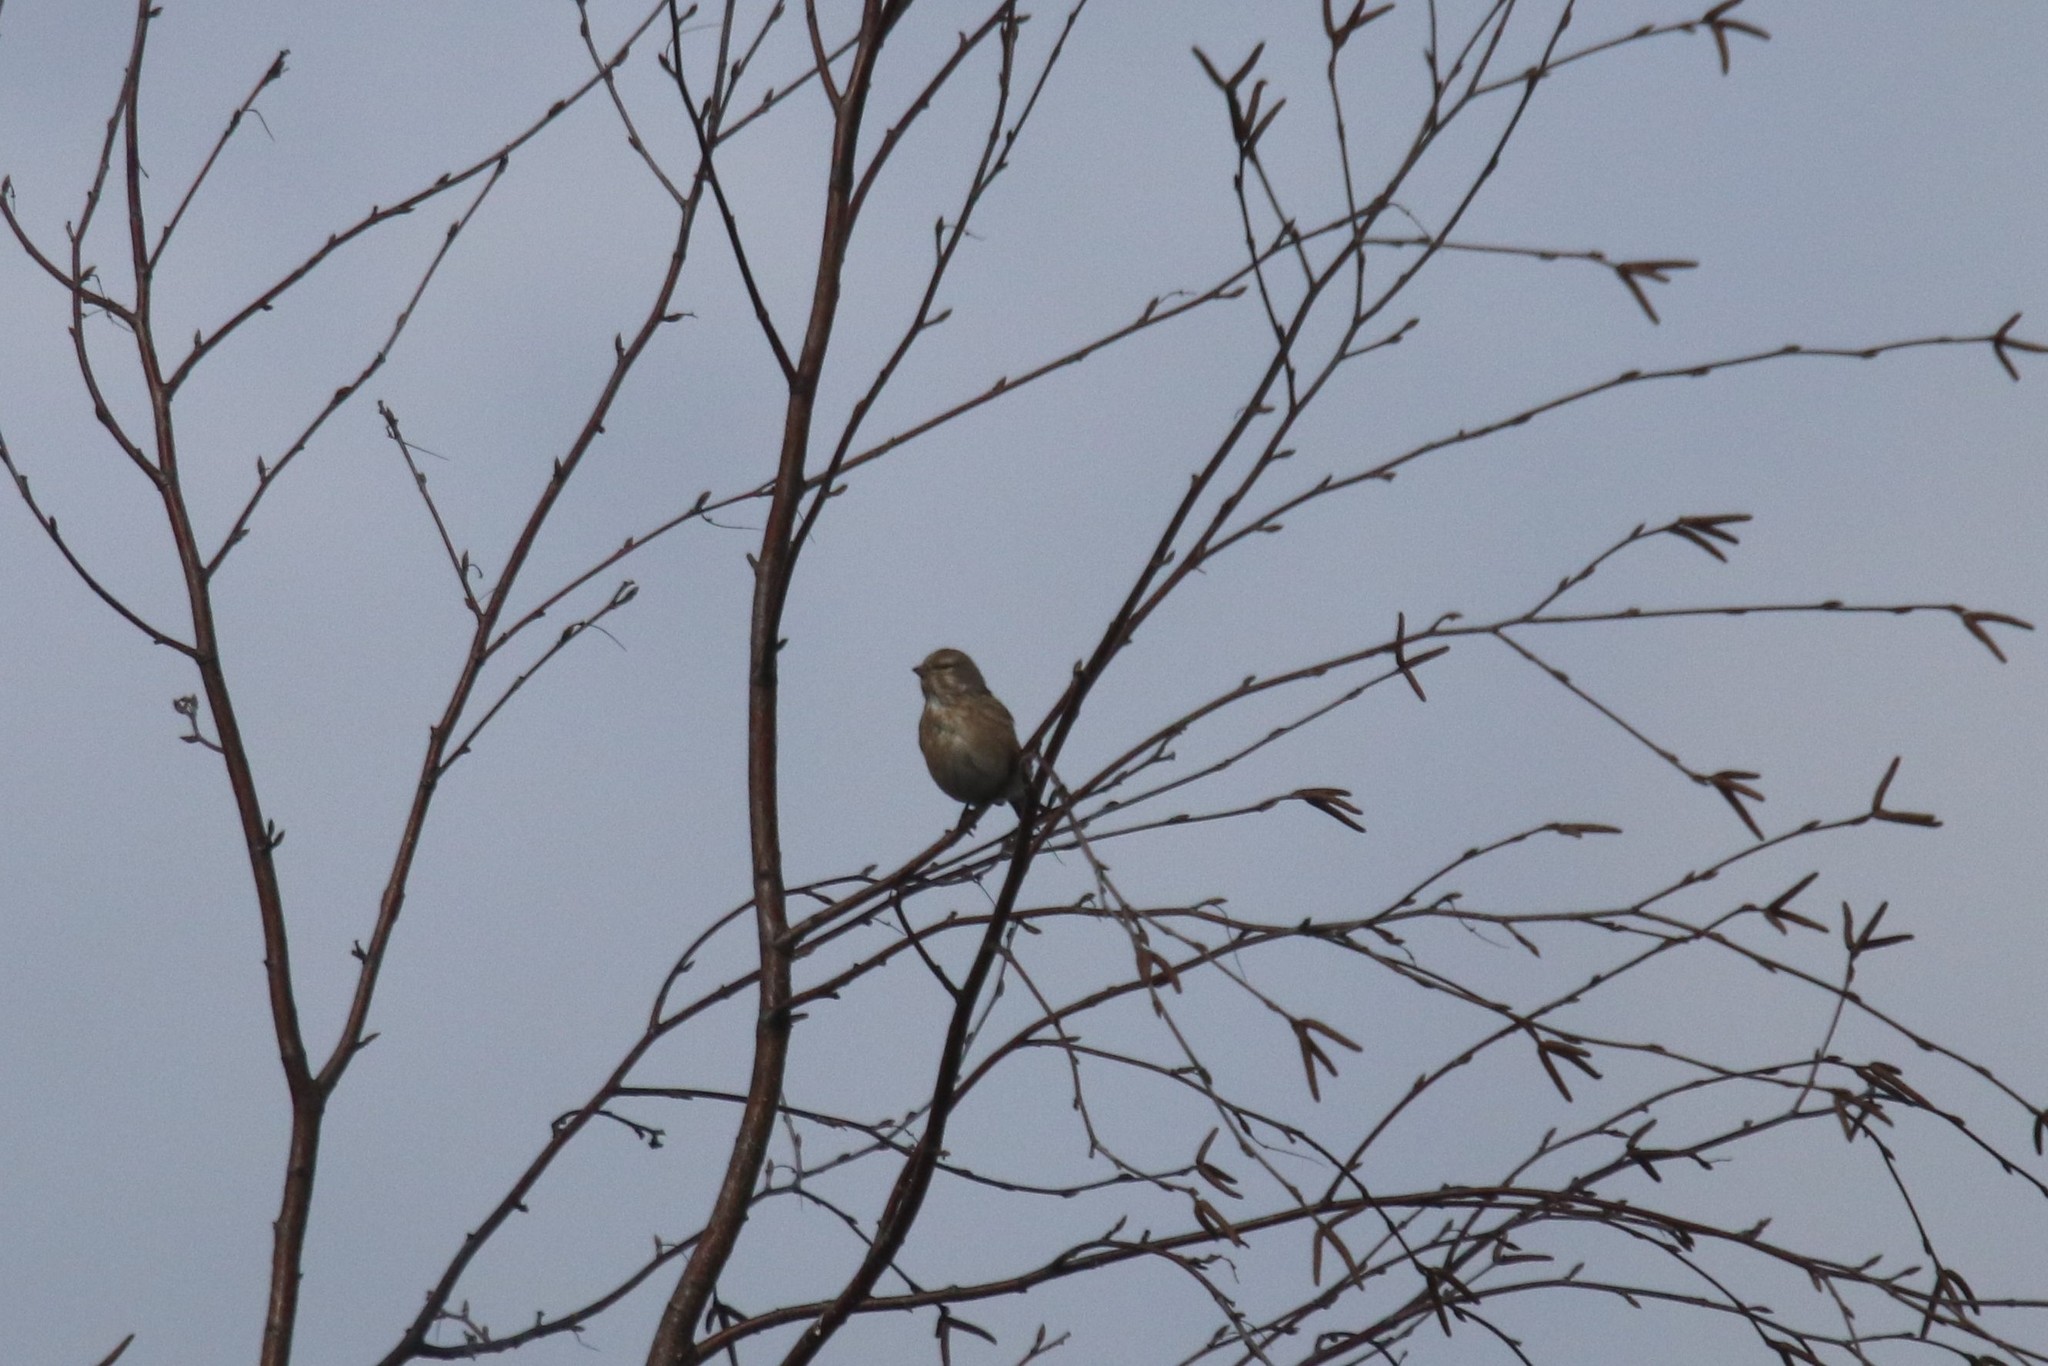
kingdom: Animalia
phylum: Chordata
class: Aves
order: Passeriformes
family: Fringillidae
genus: Linaria
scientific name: Linaria cannabina
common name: Common linnet
